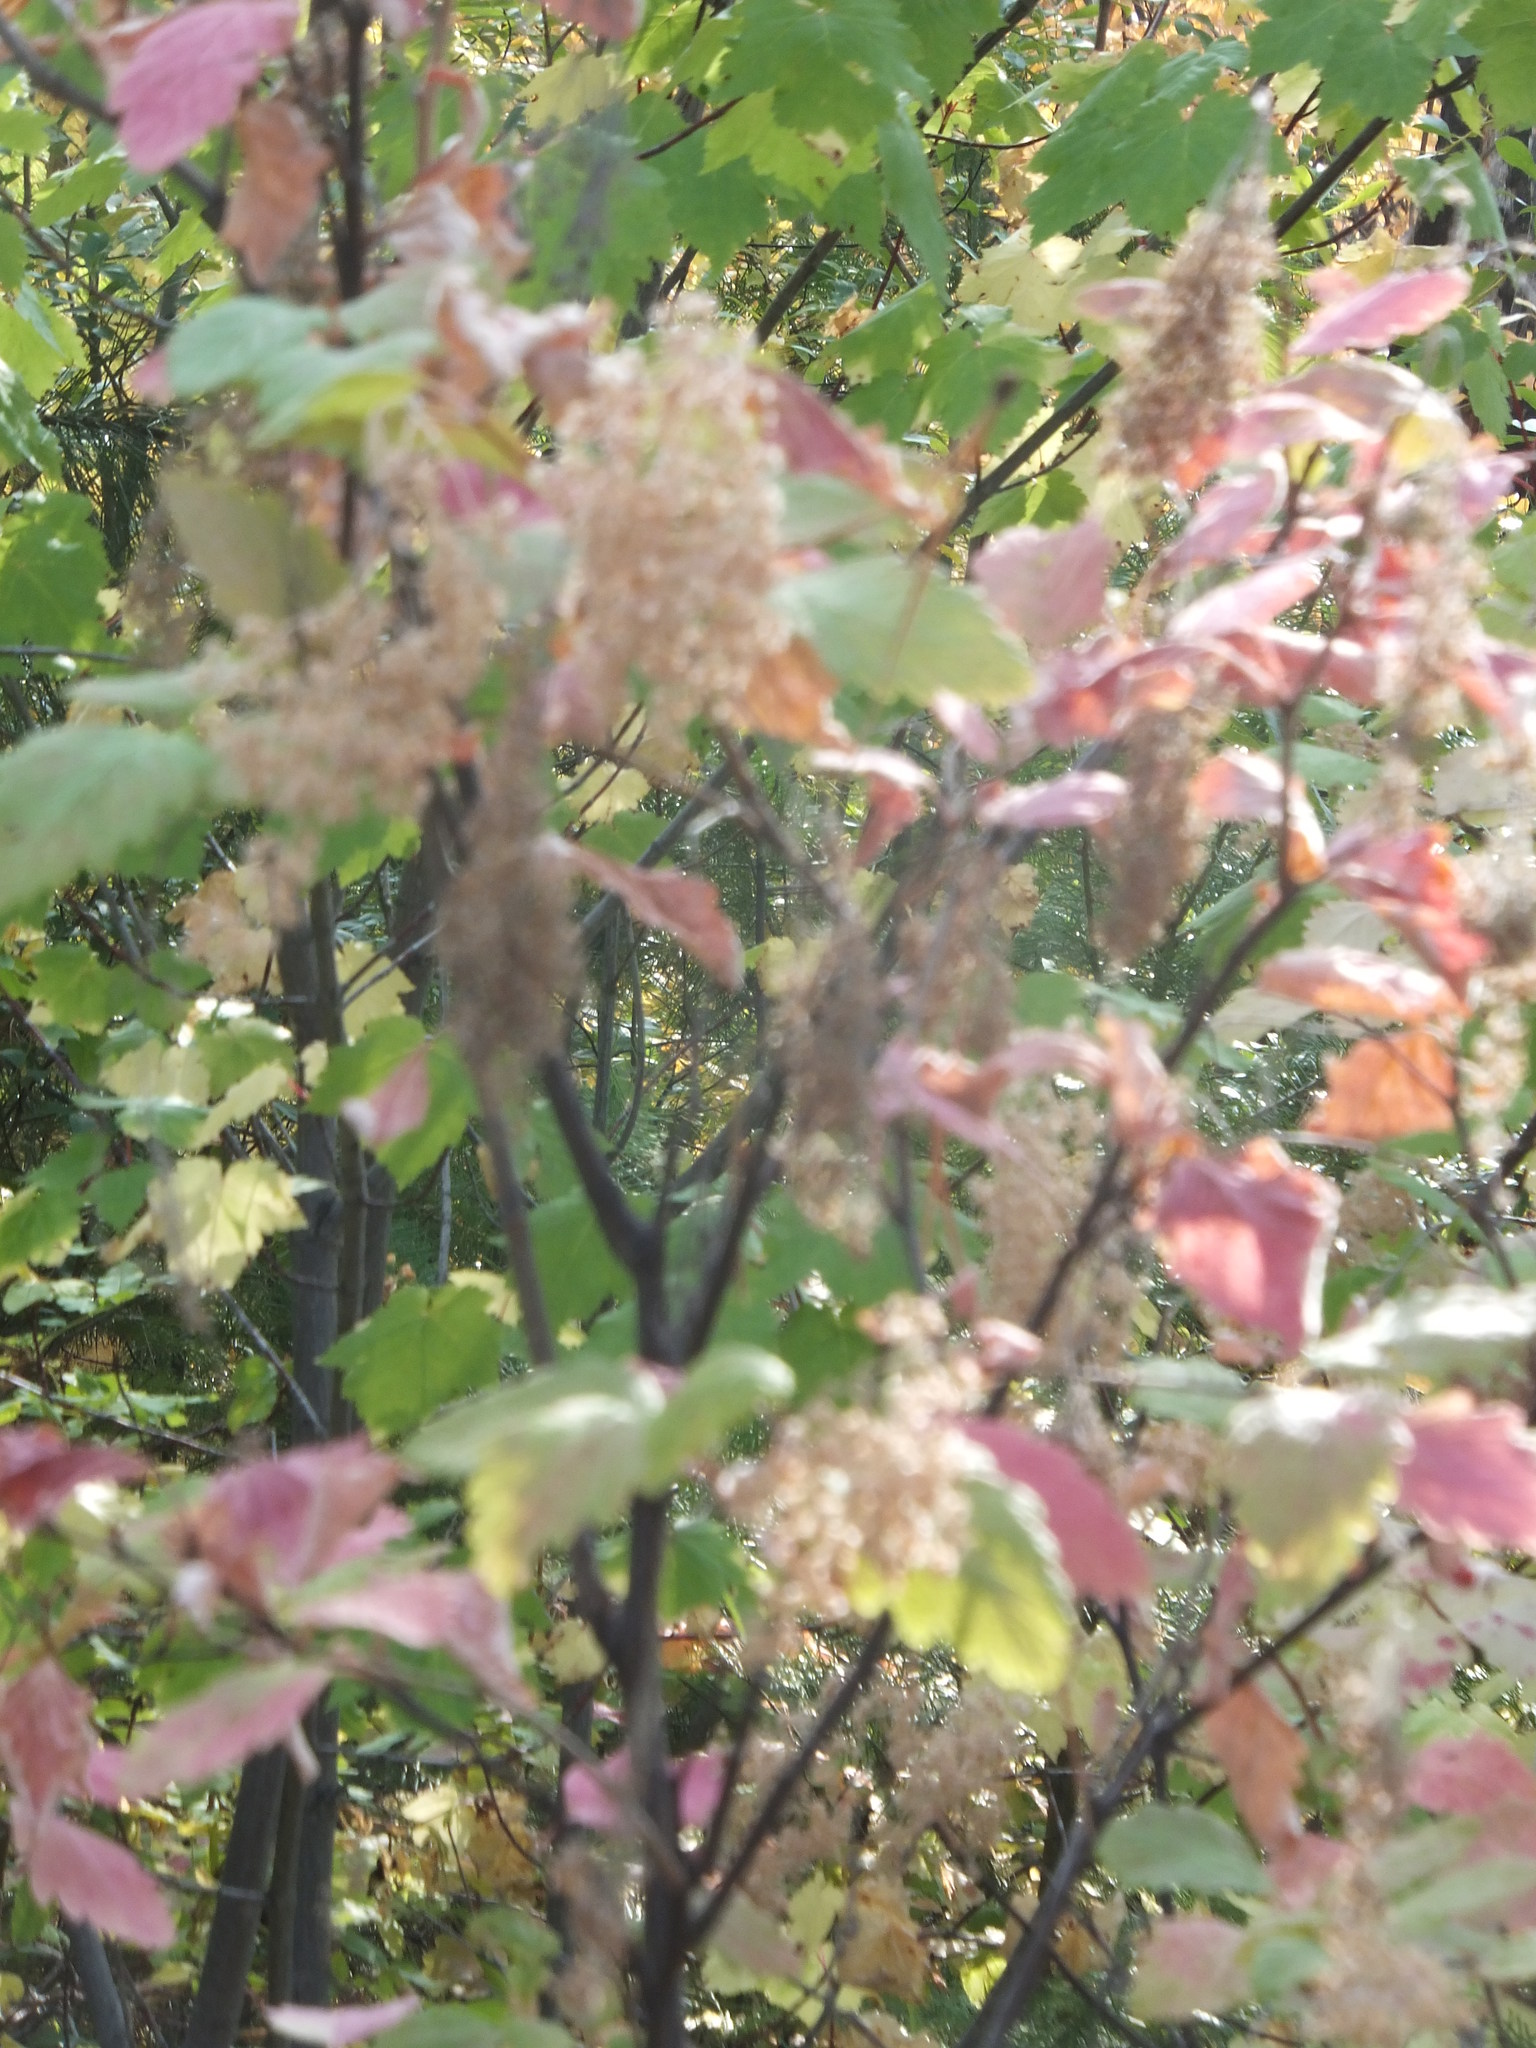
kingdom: Plantae
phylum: Tracheophyta
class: Magnoliopsida
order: Rosales
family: Rosaceae
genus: Holodiscus
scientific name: Holodiscus discolor
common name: Oceanspray
